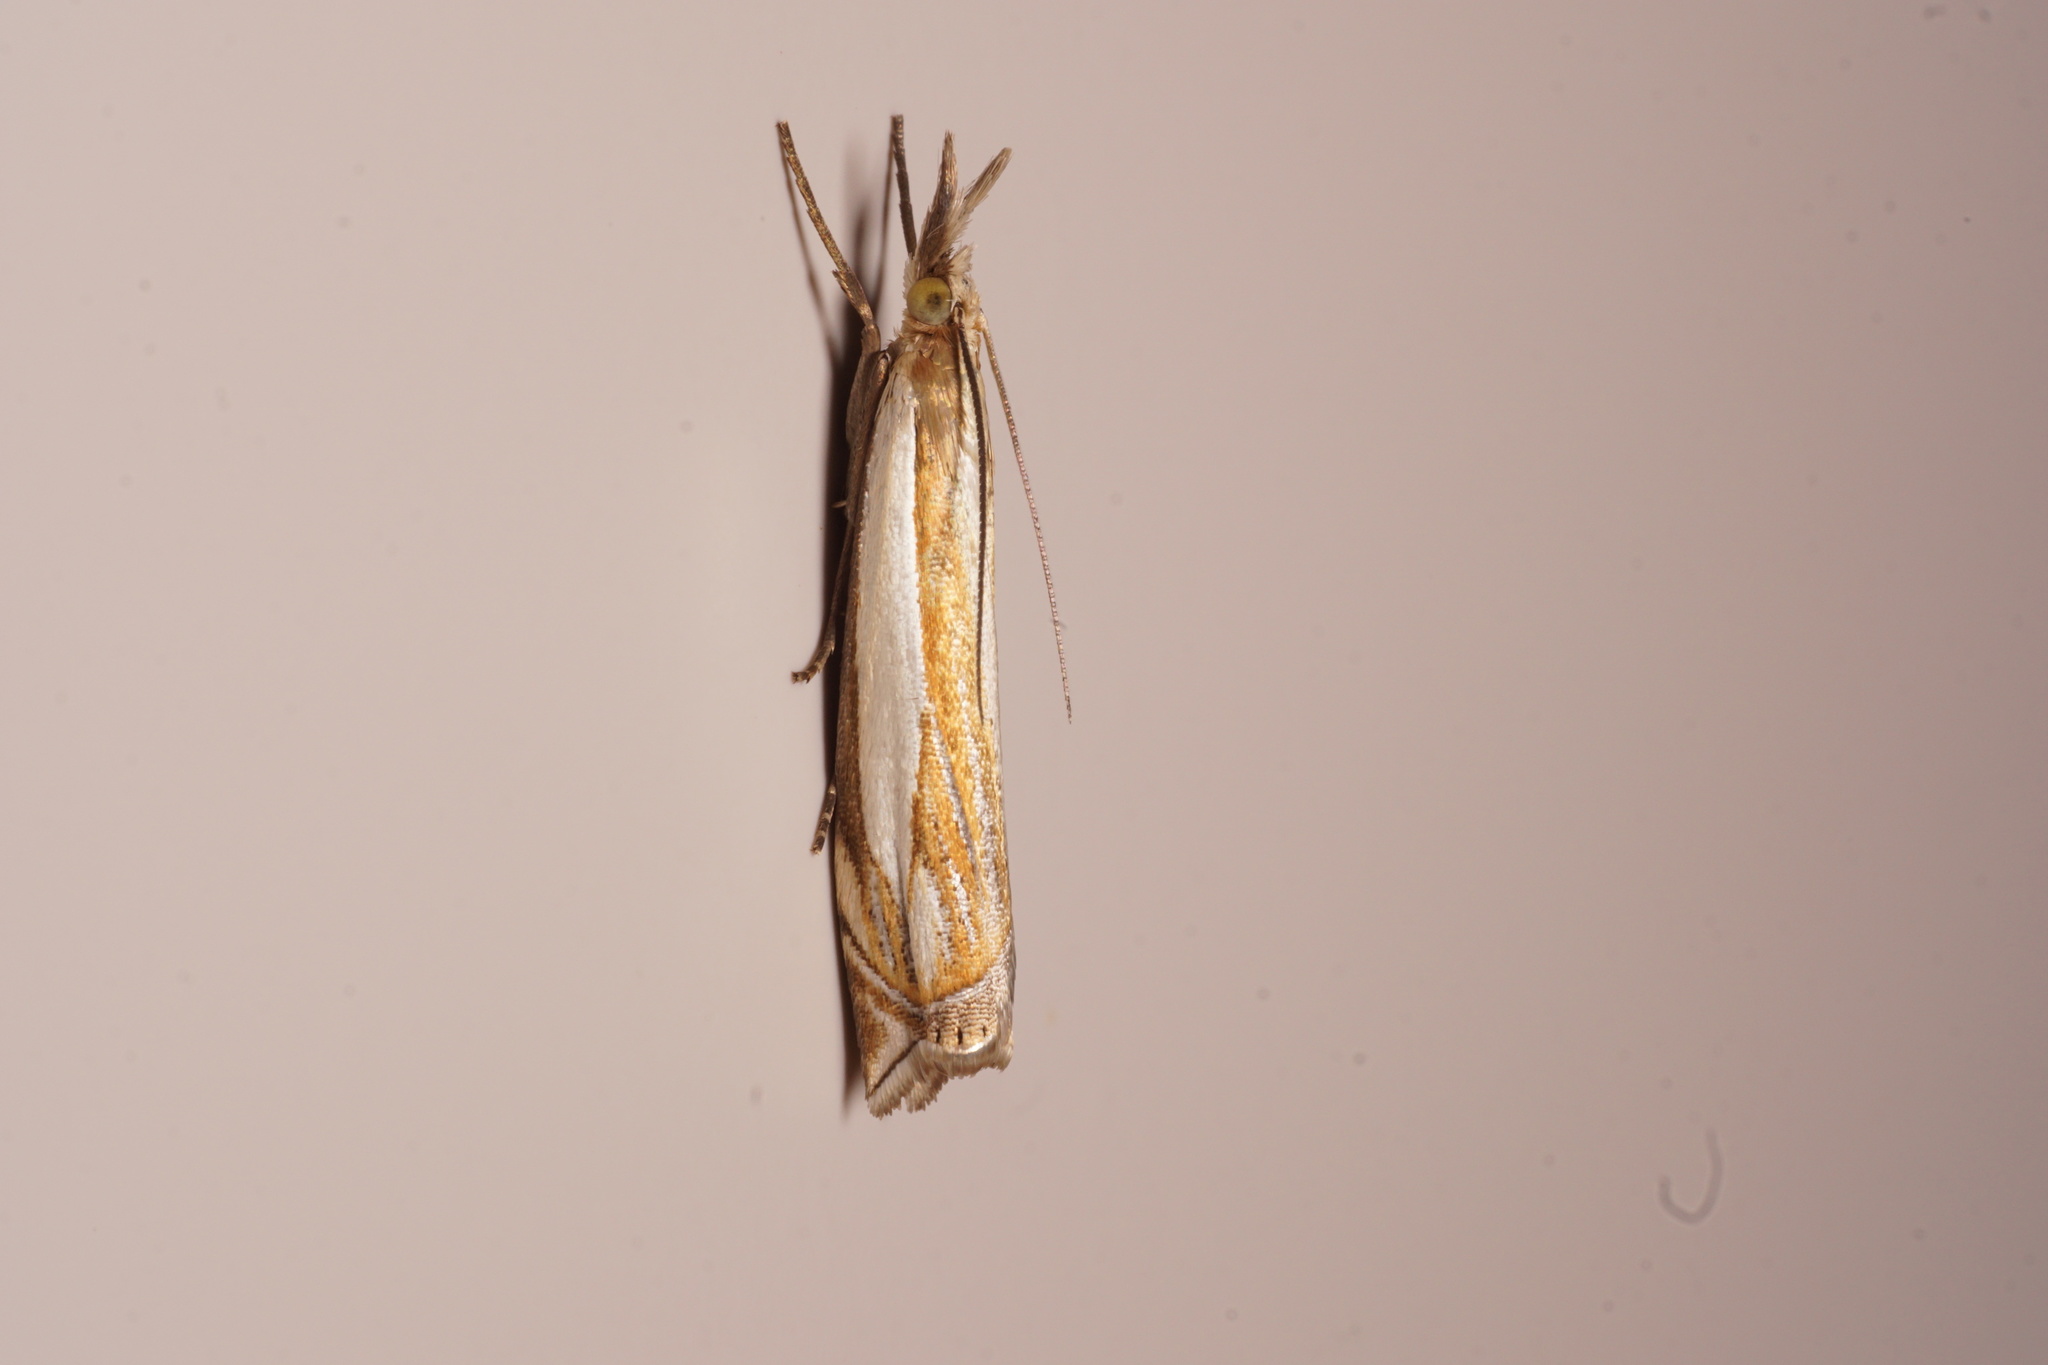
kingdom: Animalia
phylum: Arthropoda
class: Insecta
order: Lepidoptera
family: Crambidae
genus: Crambus
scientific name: Crambus pascuella
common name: Inlaid grass-veneer
